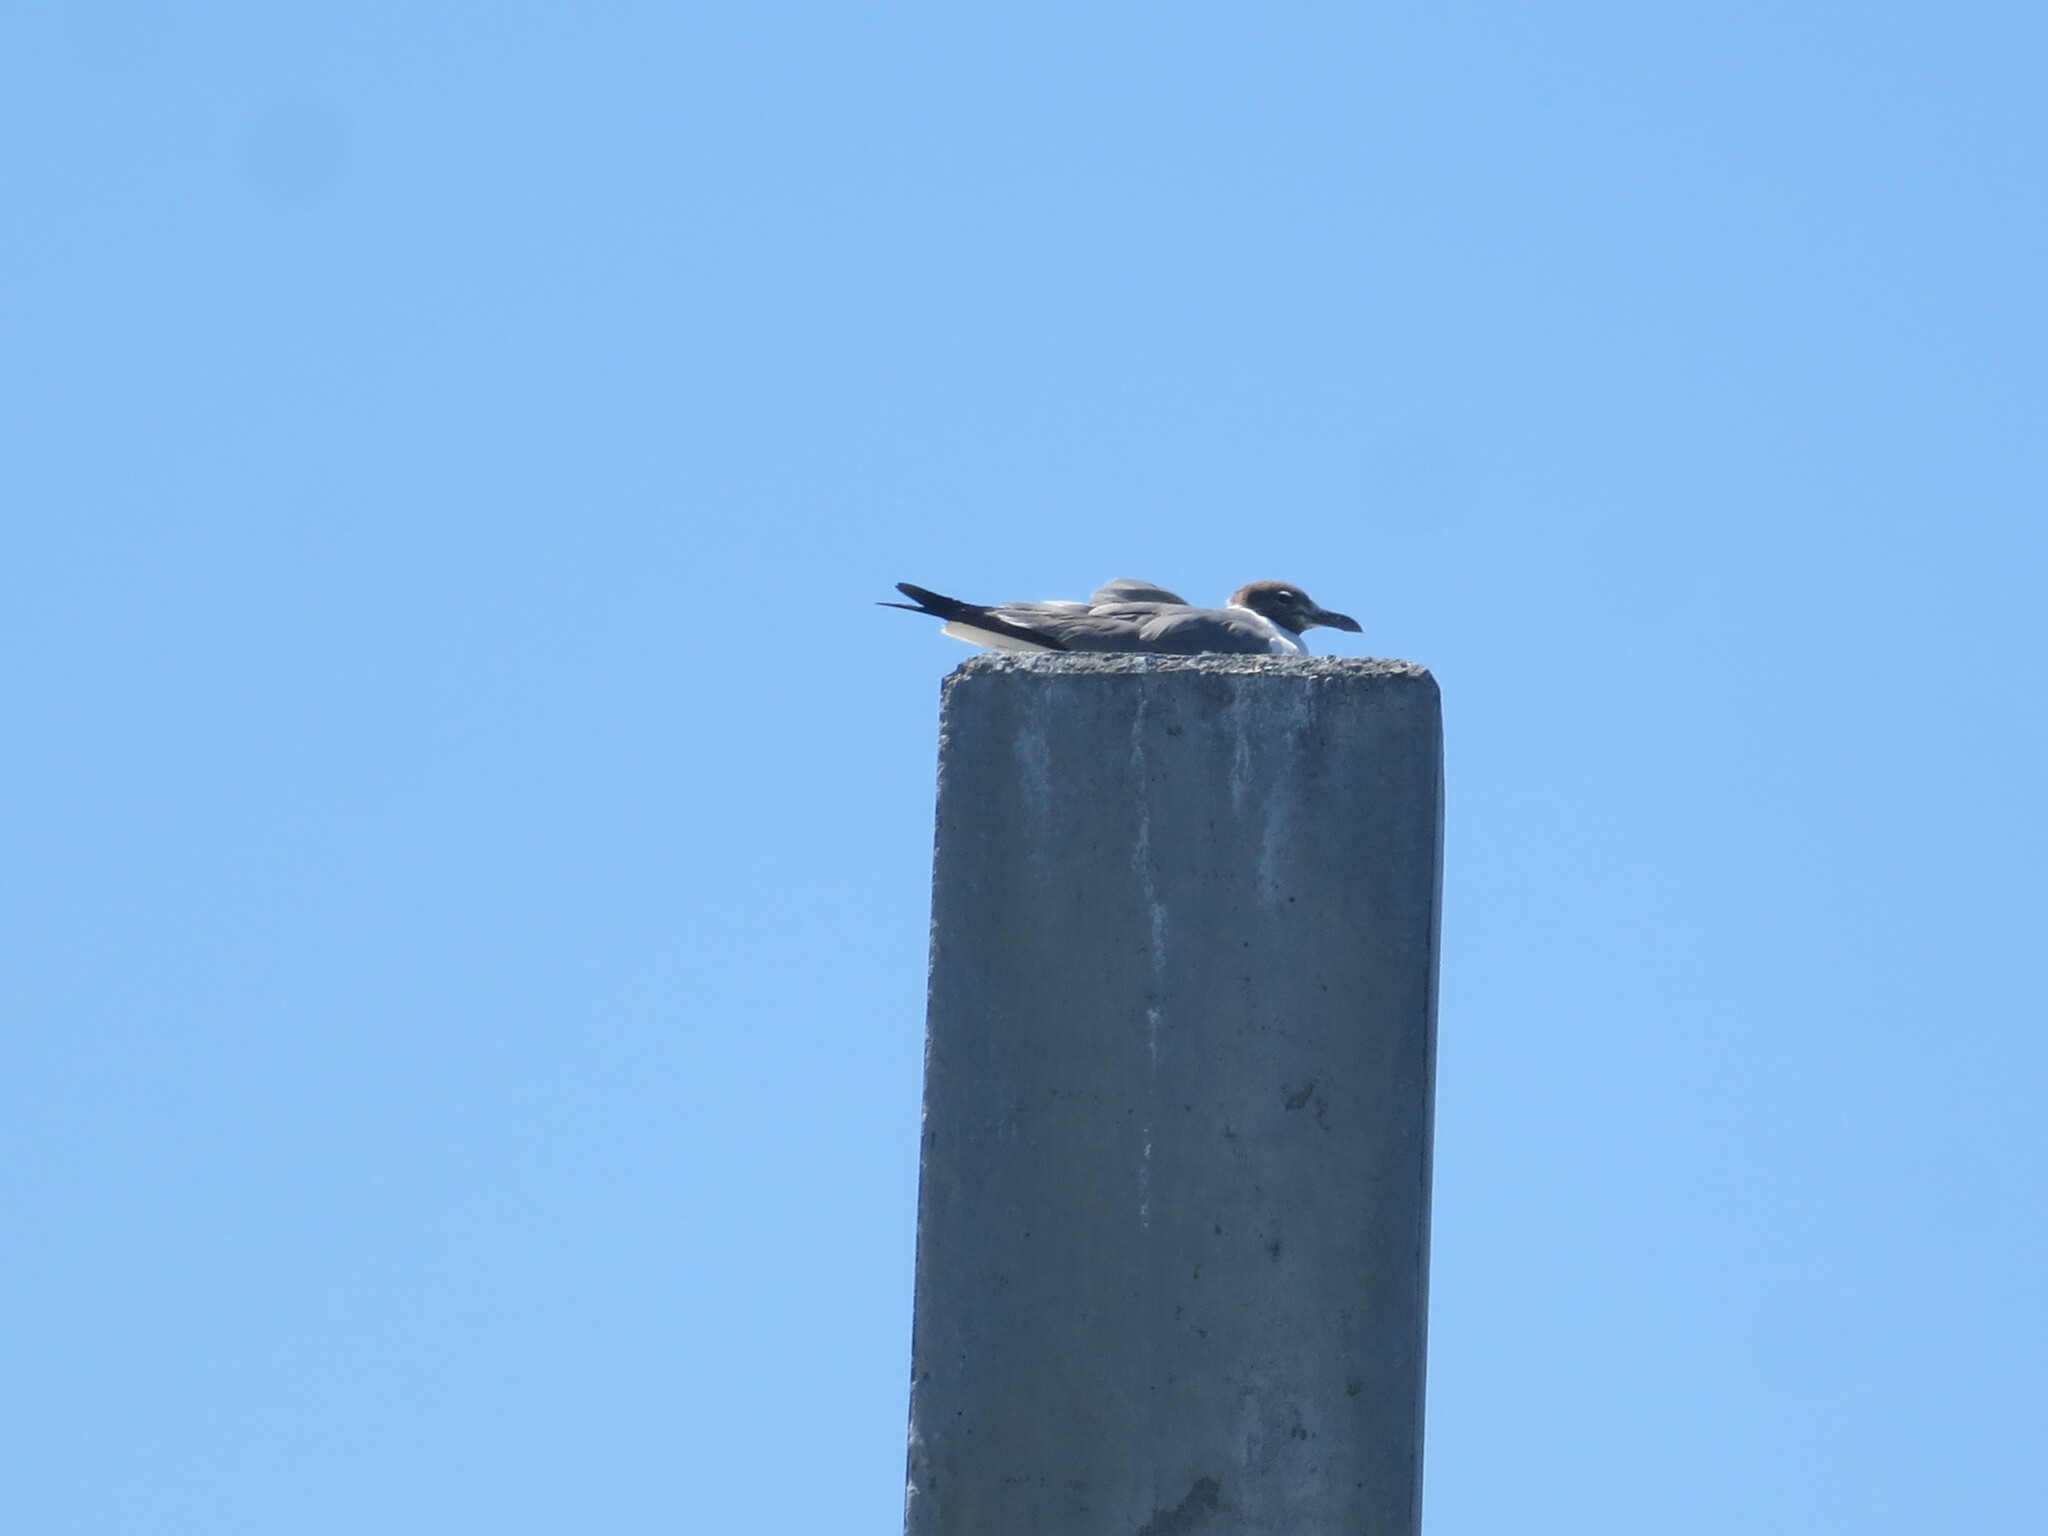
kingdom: Animalia
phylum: Chordata
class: Aves
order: Charadriiformes
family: Laridae
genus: Leucophaeus
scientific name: Leucophaeus atricilla
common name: Laughing gull
